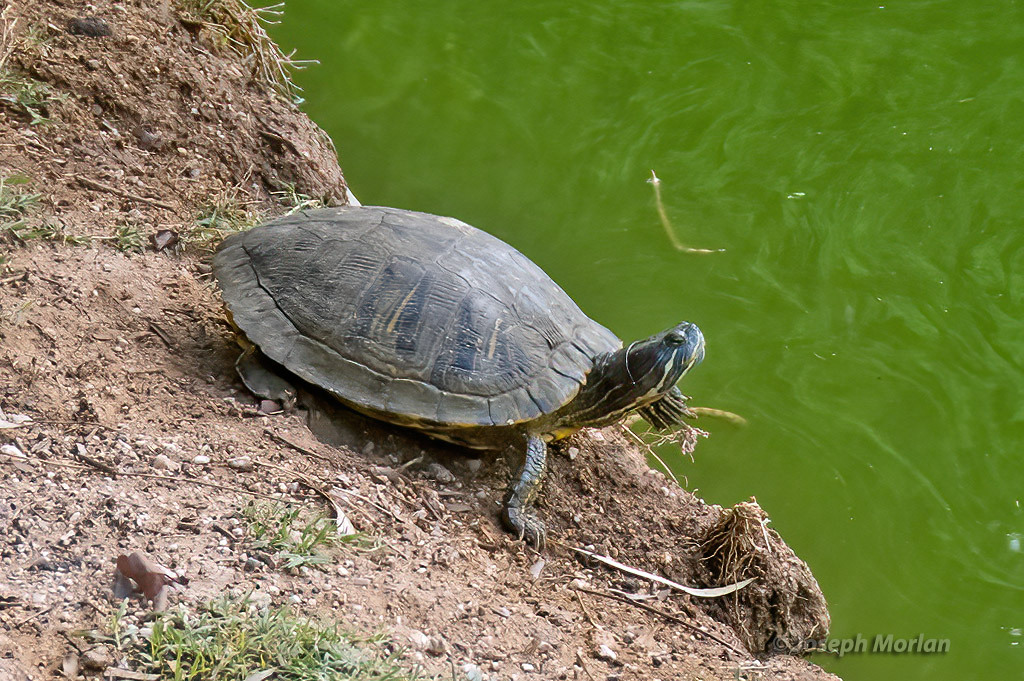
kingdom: Animalia
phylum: Chordata
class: Testudines
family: Emydidae
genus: Trachemys
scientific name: Trachemys scripta
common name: Slider
